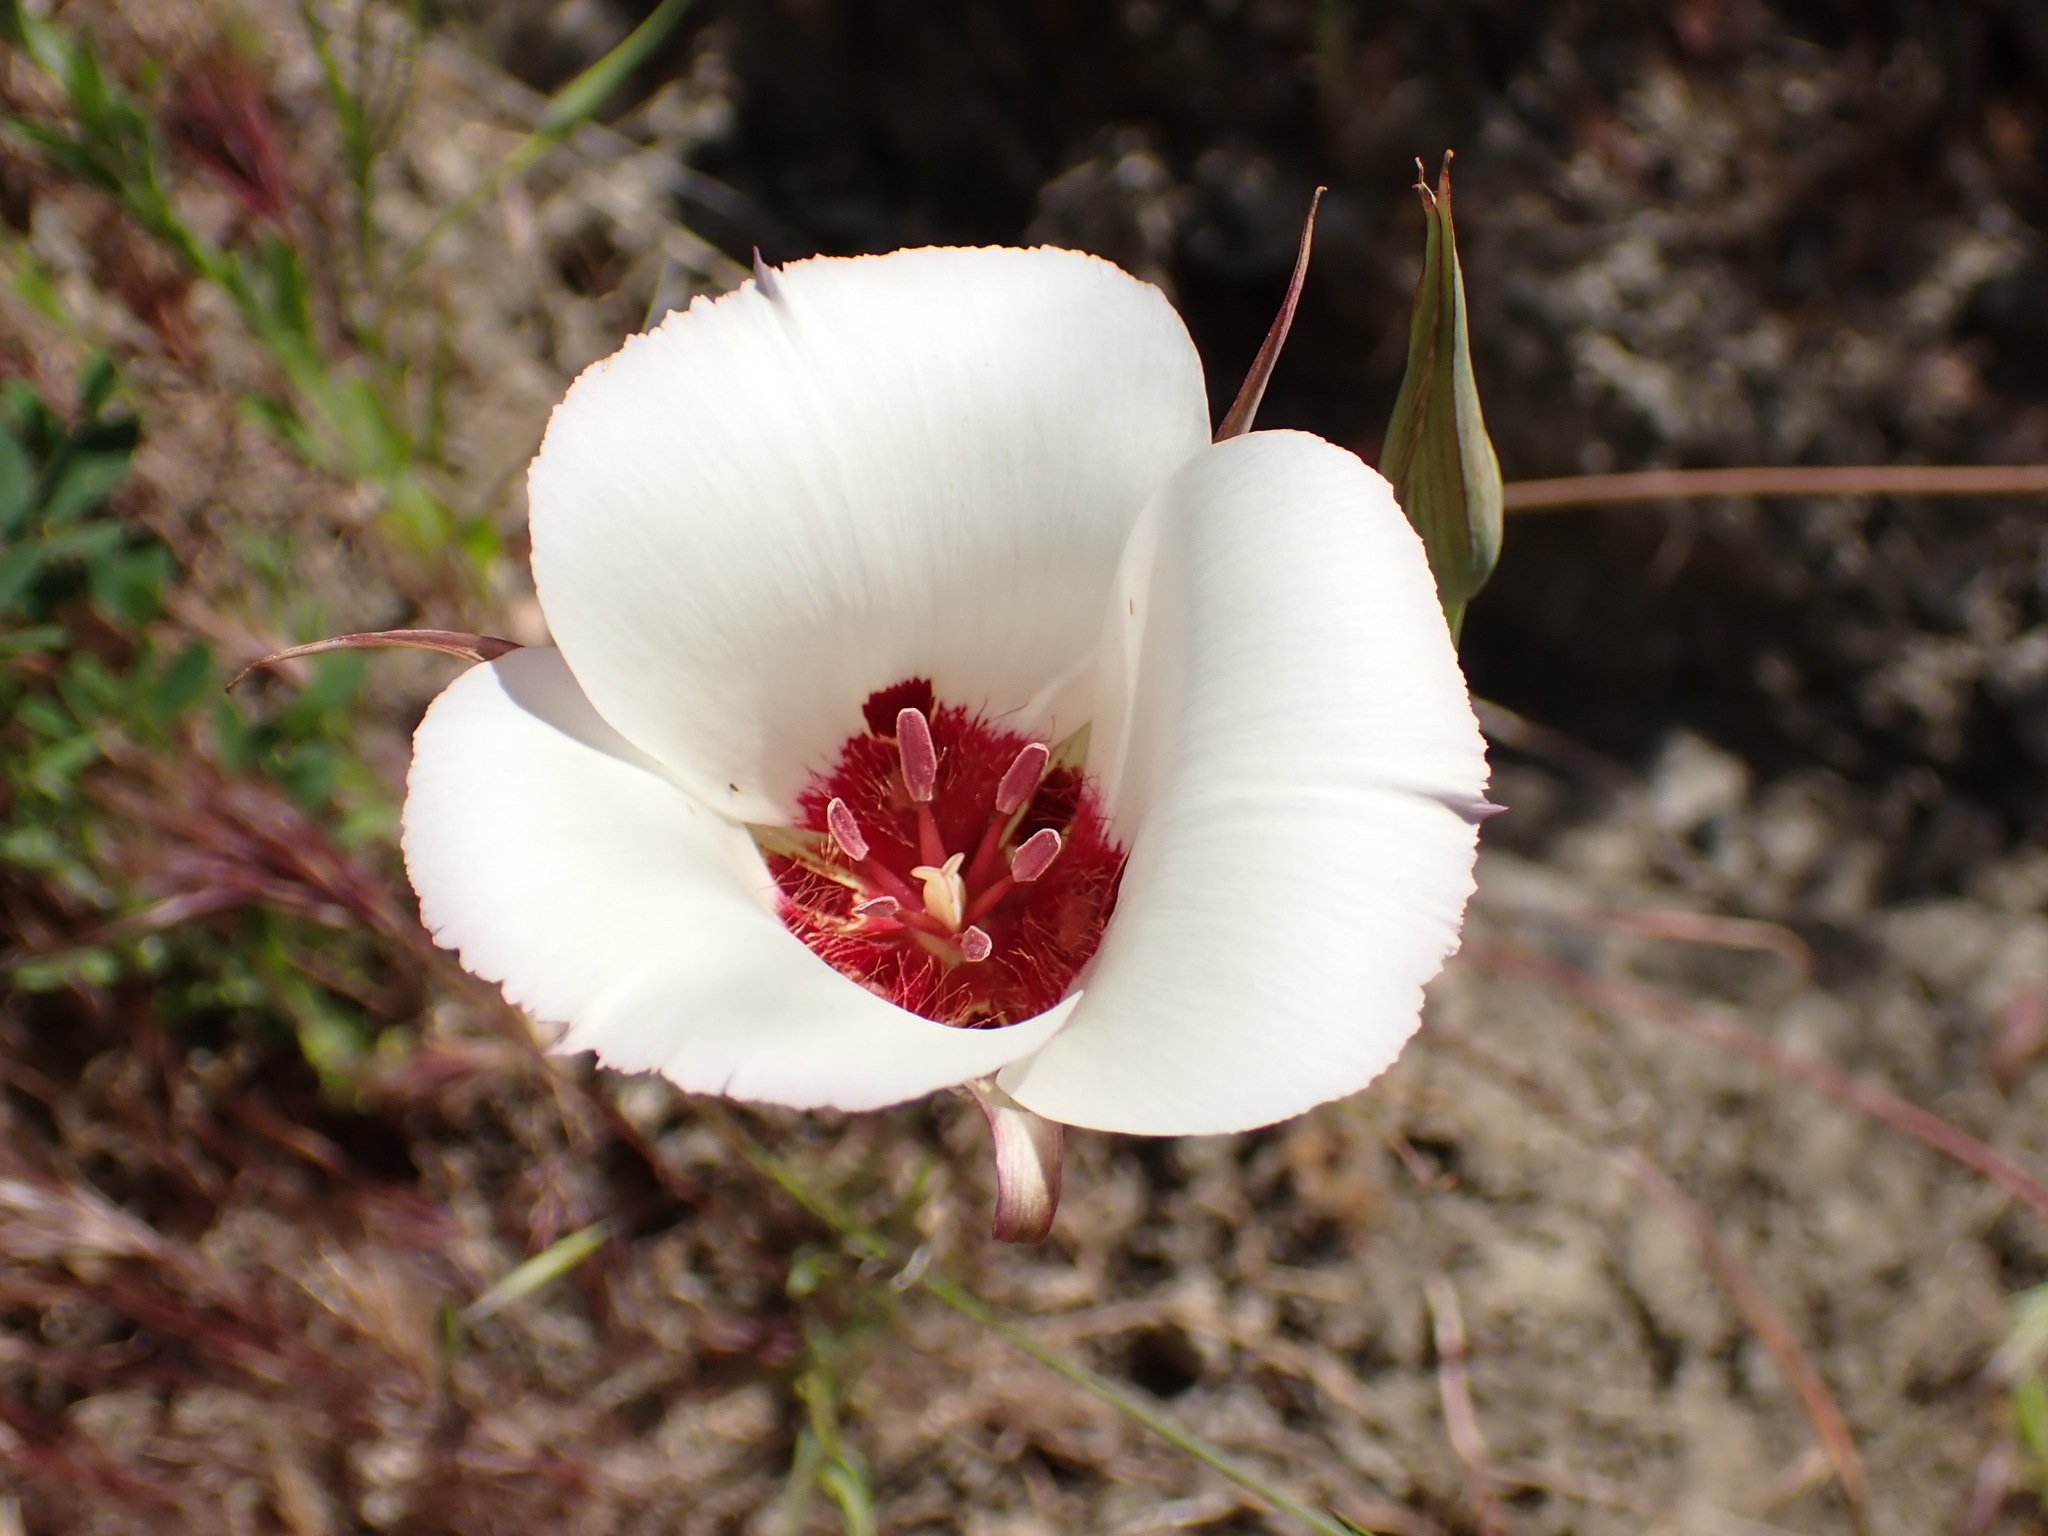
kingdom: Plantae
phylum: Tracheophyta
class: Liliopsida
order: Liliales
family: Liliaceae
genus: Calochortus
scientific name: Calochortus simulans
